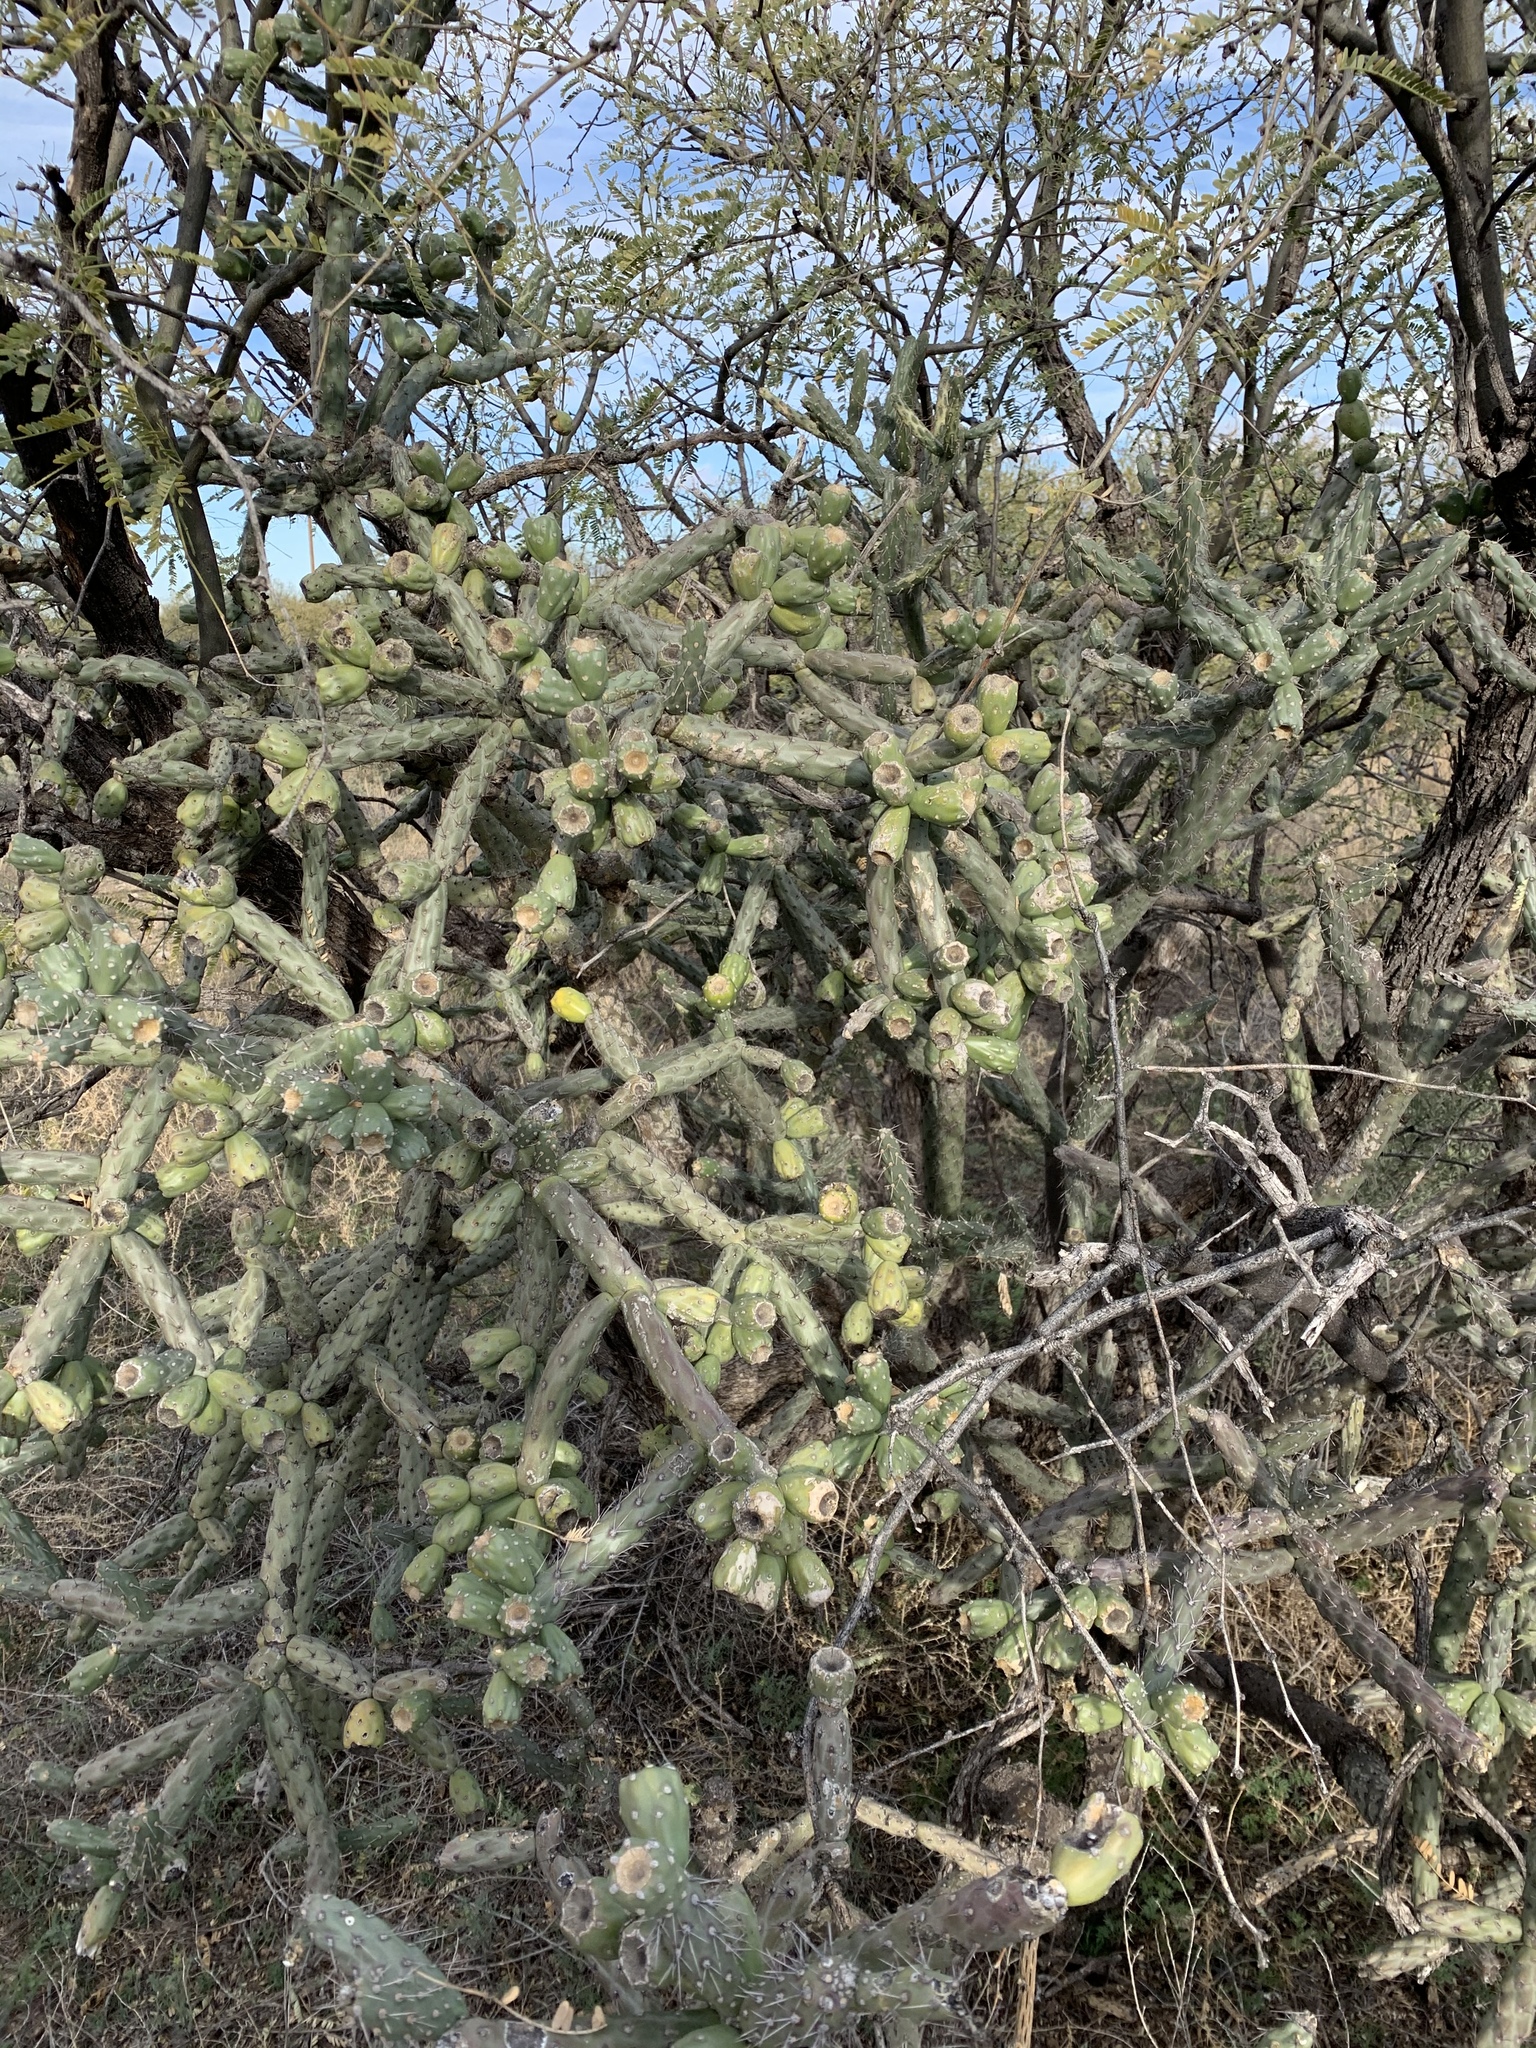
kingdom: Plantae
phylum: Tracheophyta
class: Magnoliopsida
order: Caryophyllales
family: Cactaceae
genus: Cylindropuntia
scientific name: Cylindropuntia thurberi
